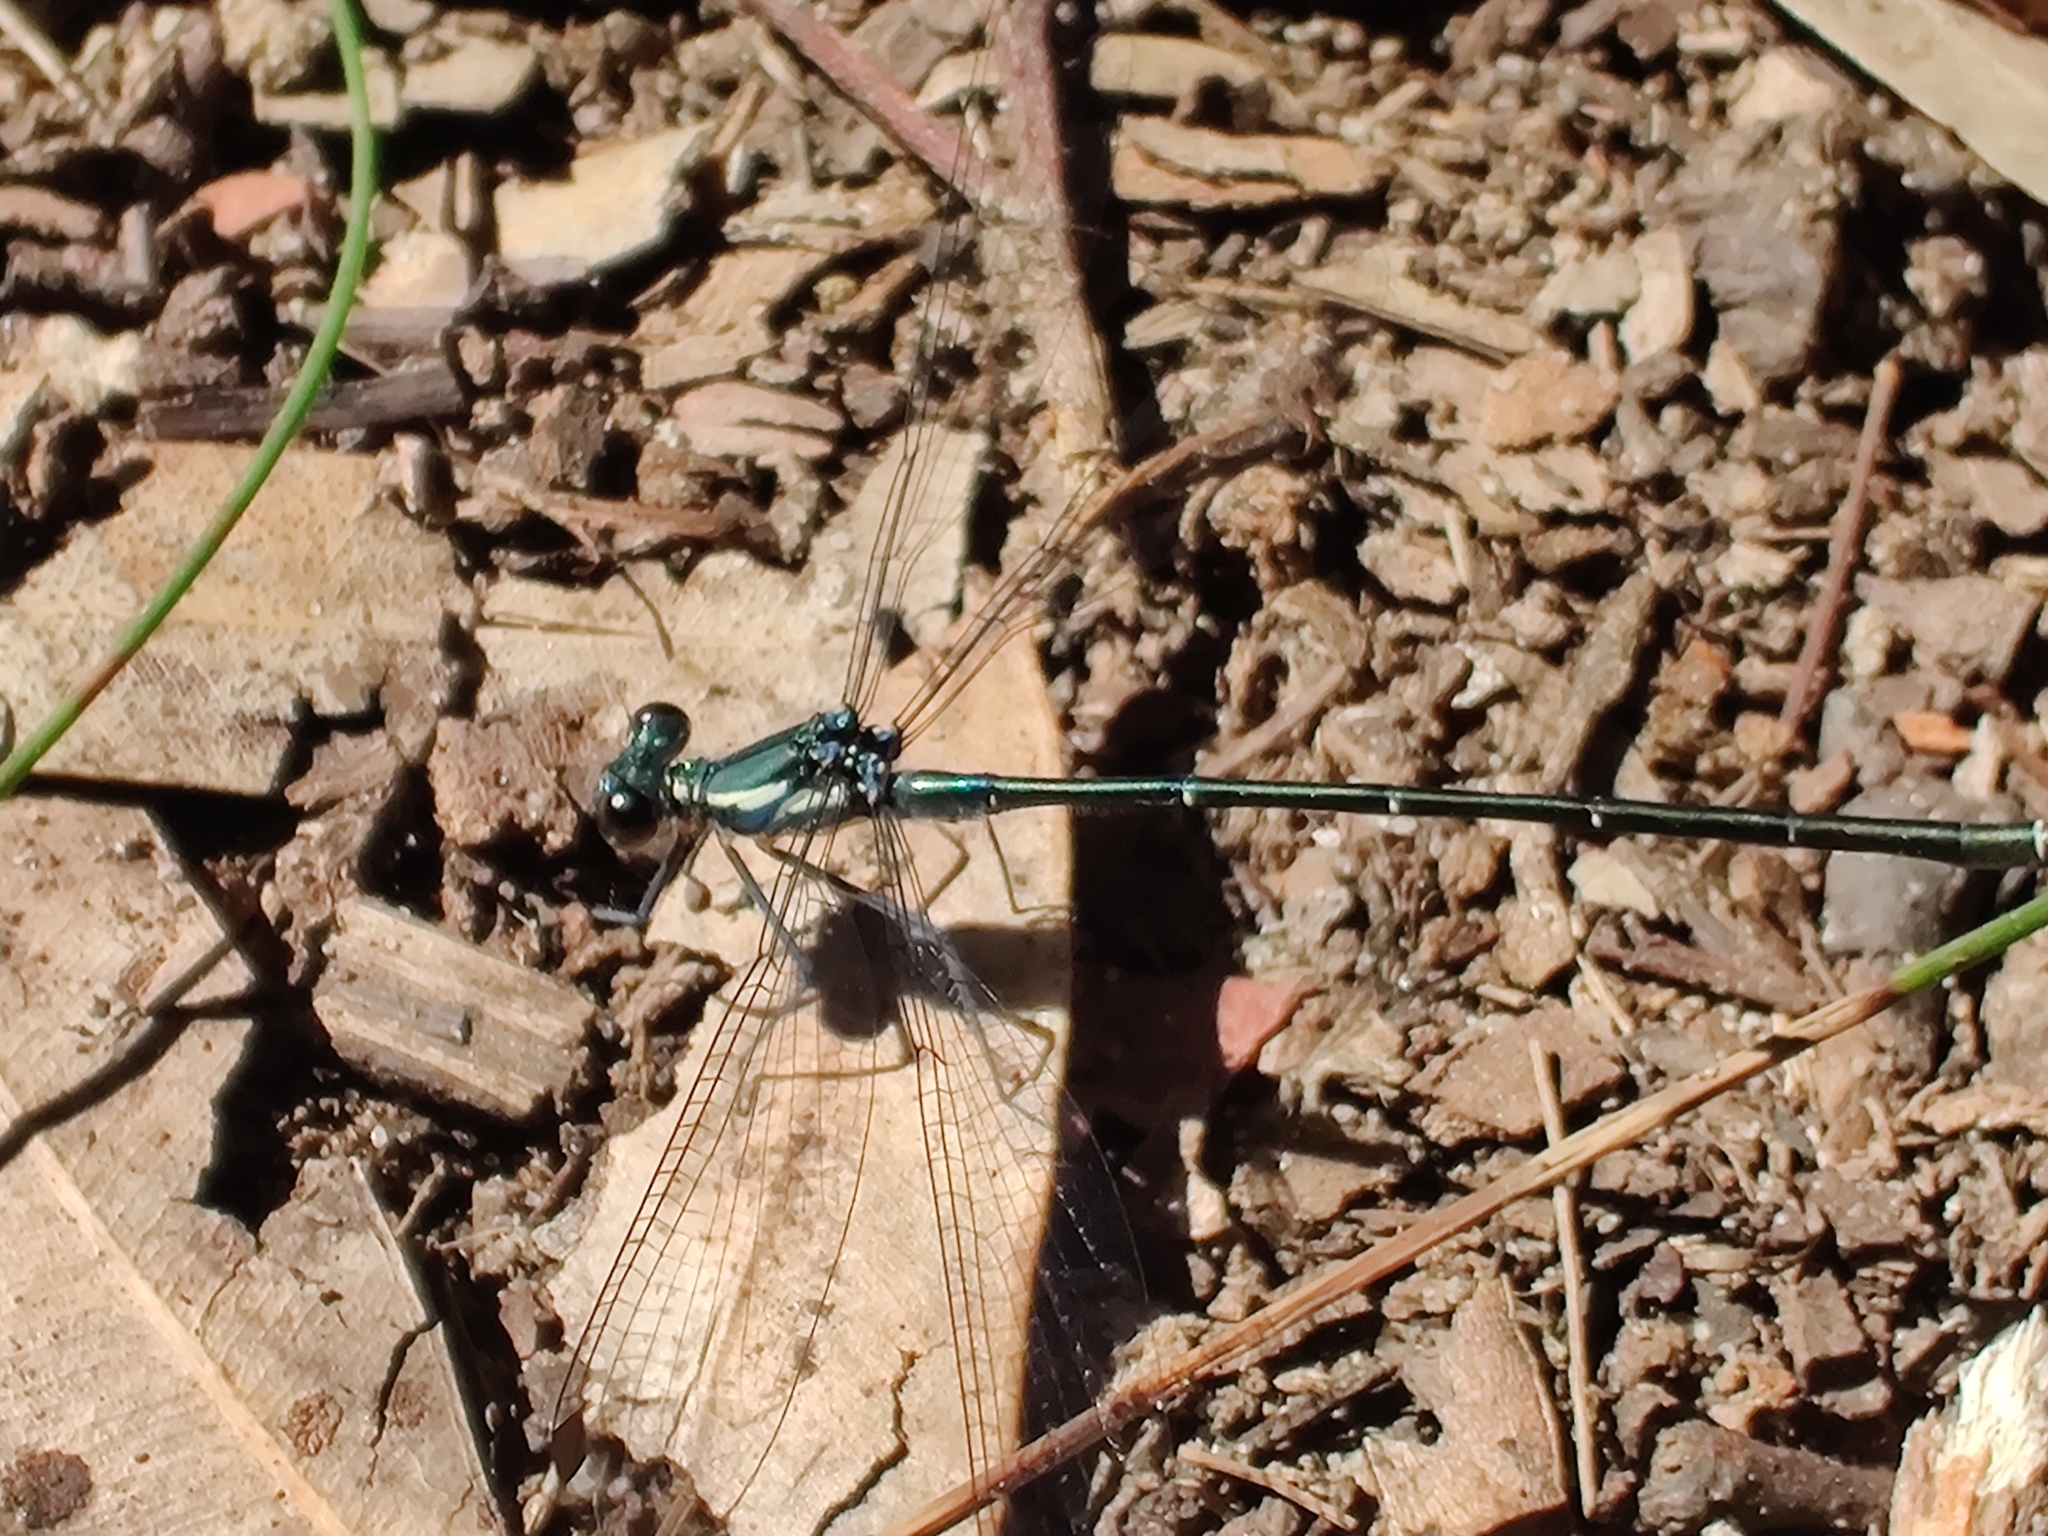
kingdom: Animalia
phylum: Arthropoda
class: Insecta
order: Odonata
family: Argiolestidae
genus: Austroargiolestes
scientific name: Austroargiolestes icteromelas
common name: Common flatwing
